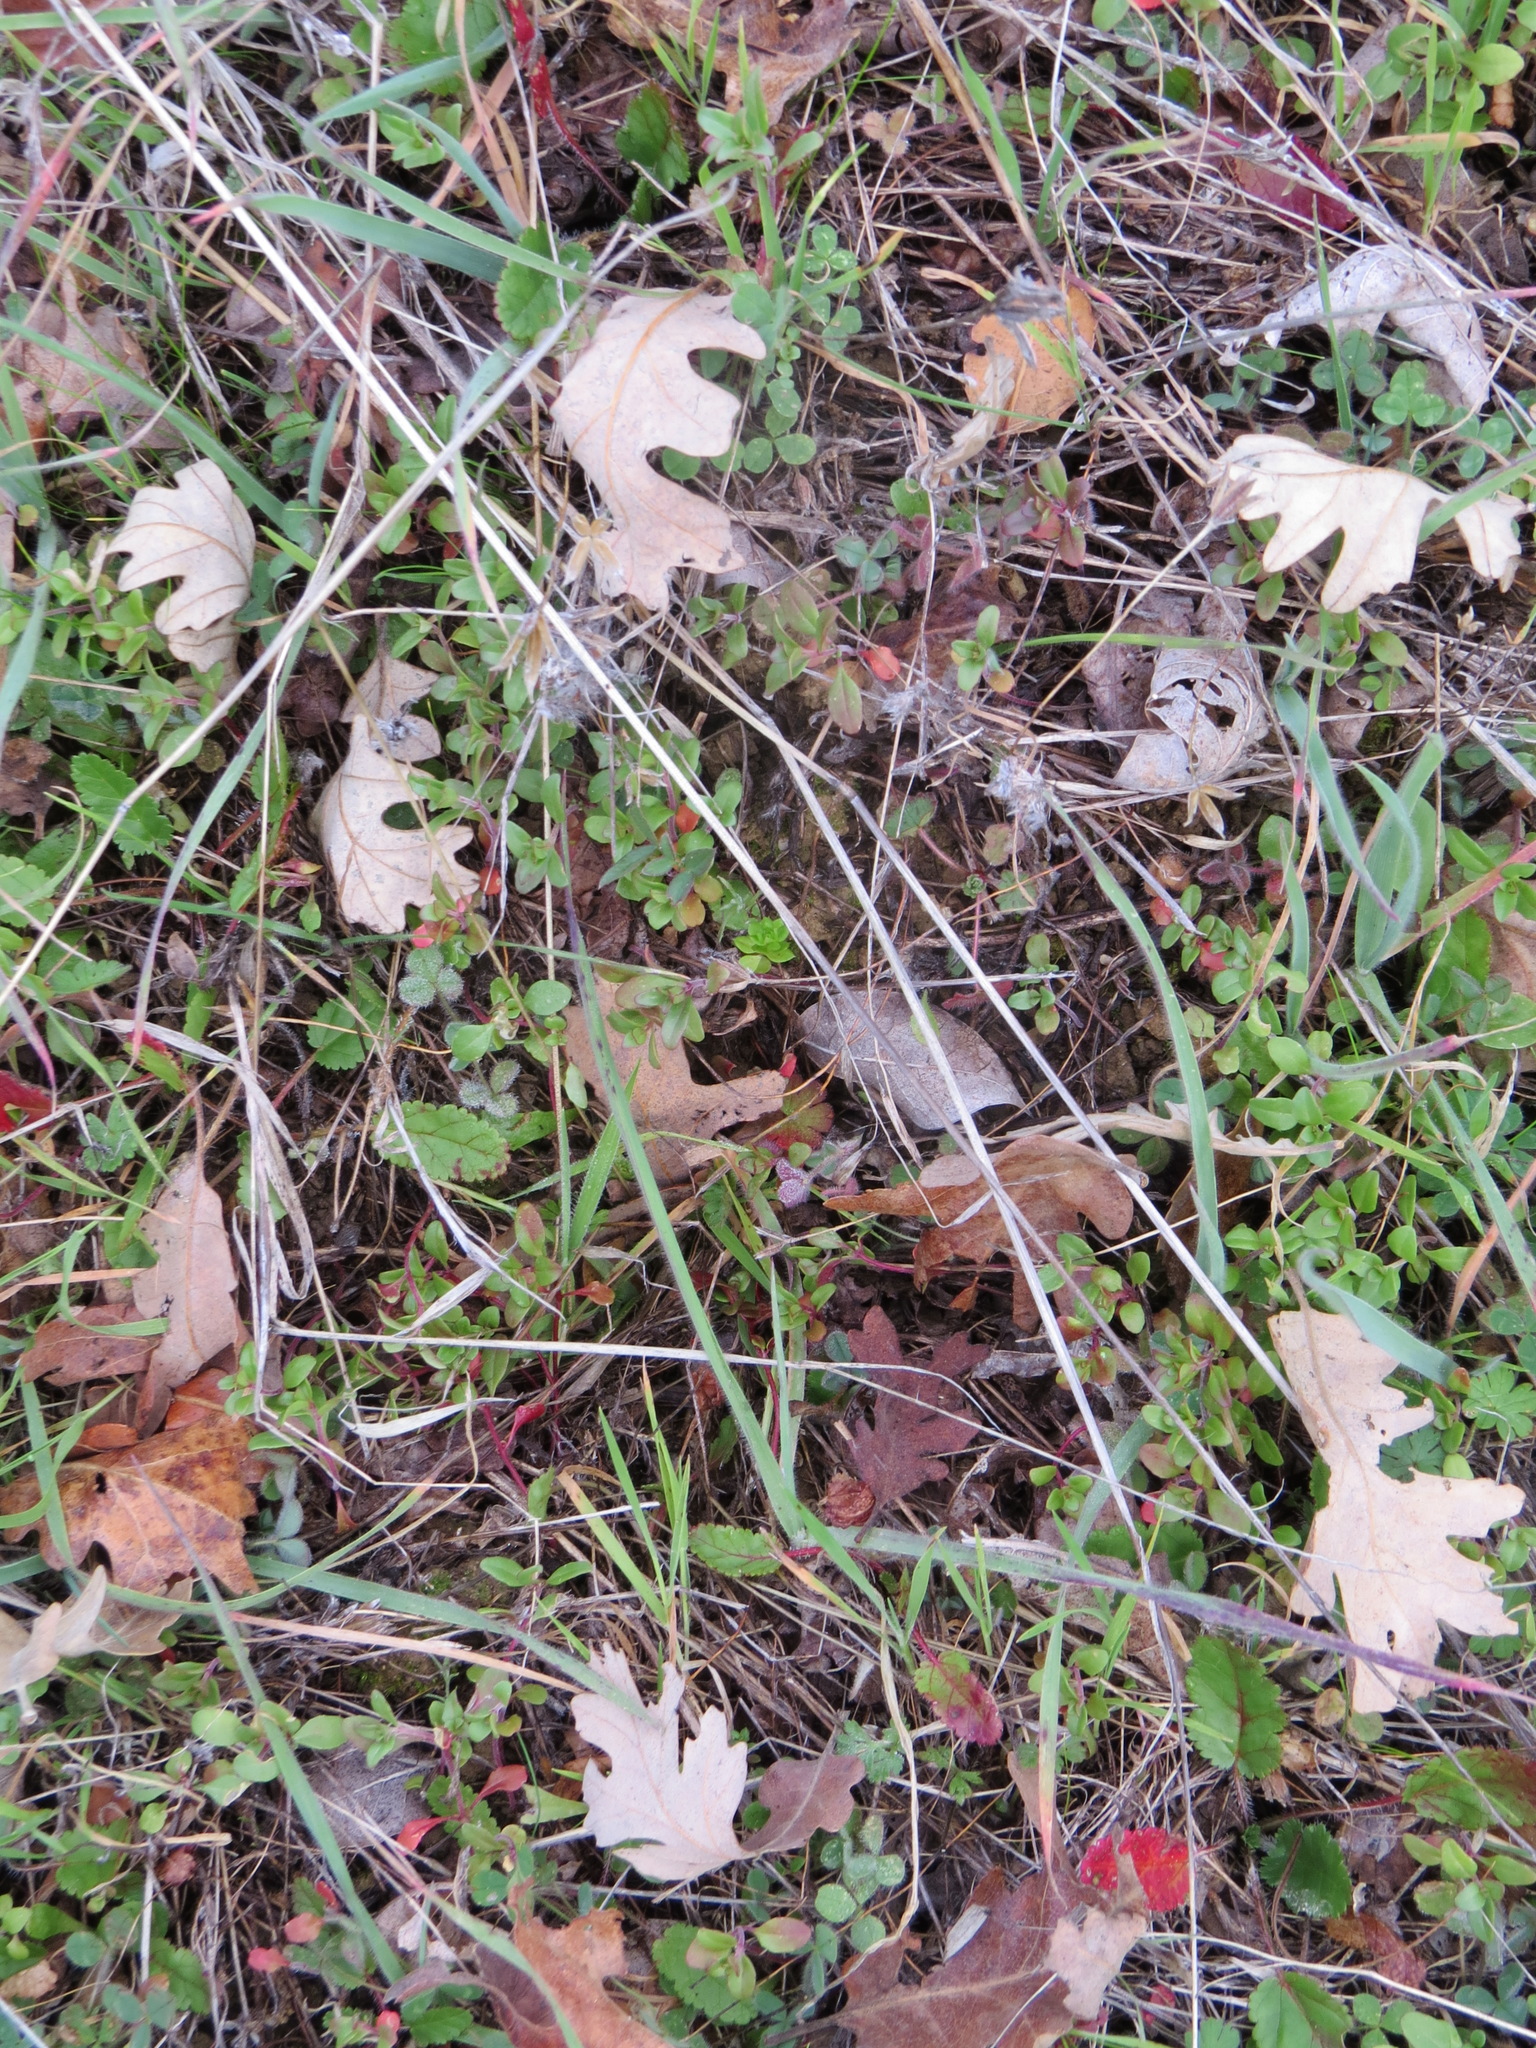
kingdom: Plantae
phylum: Tracheophyta
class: Magnoliopsida
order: Fagales
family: Fagaceae
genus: Quercus
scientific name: Quercus lobata
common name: Valley oak
